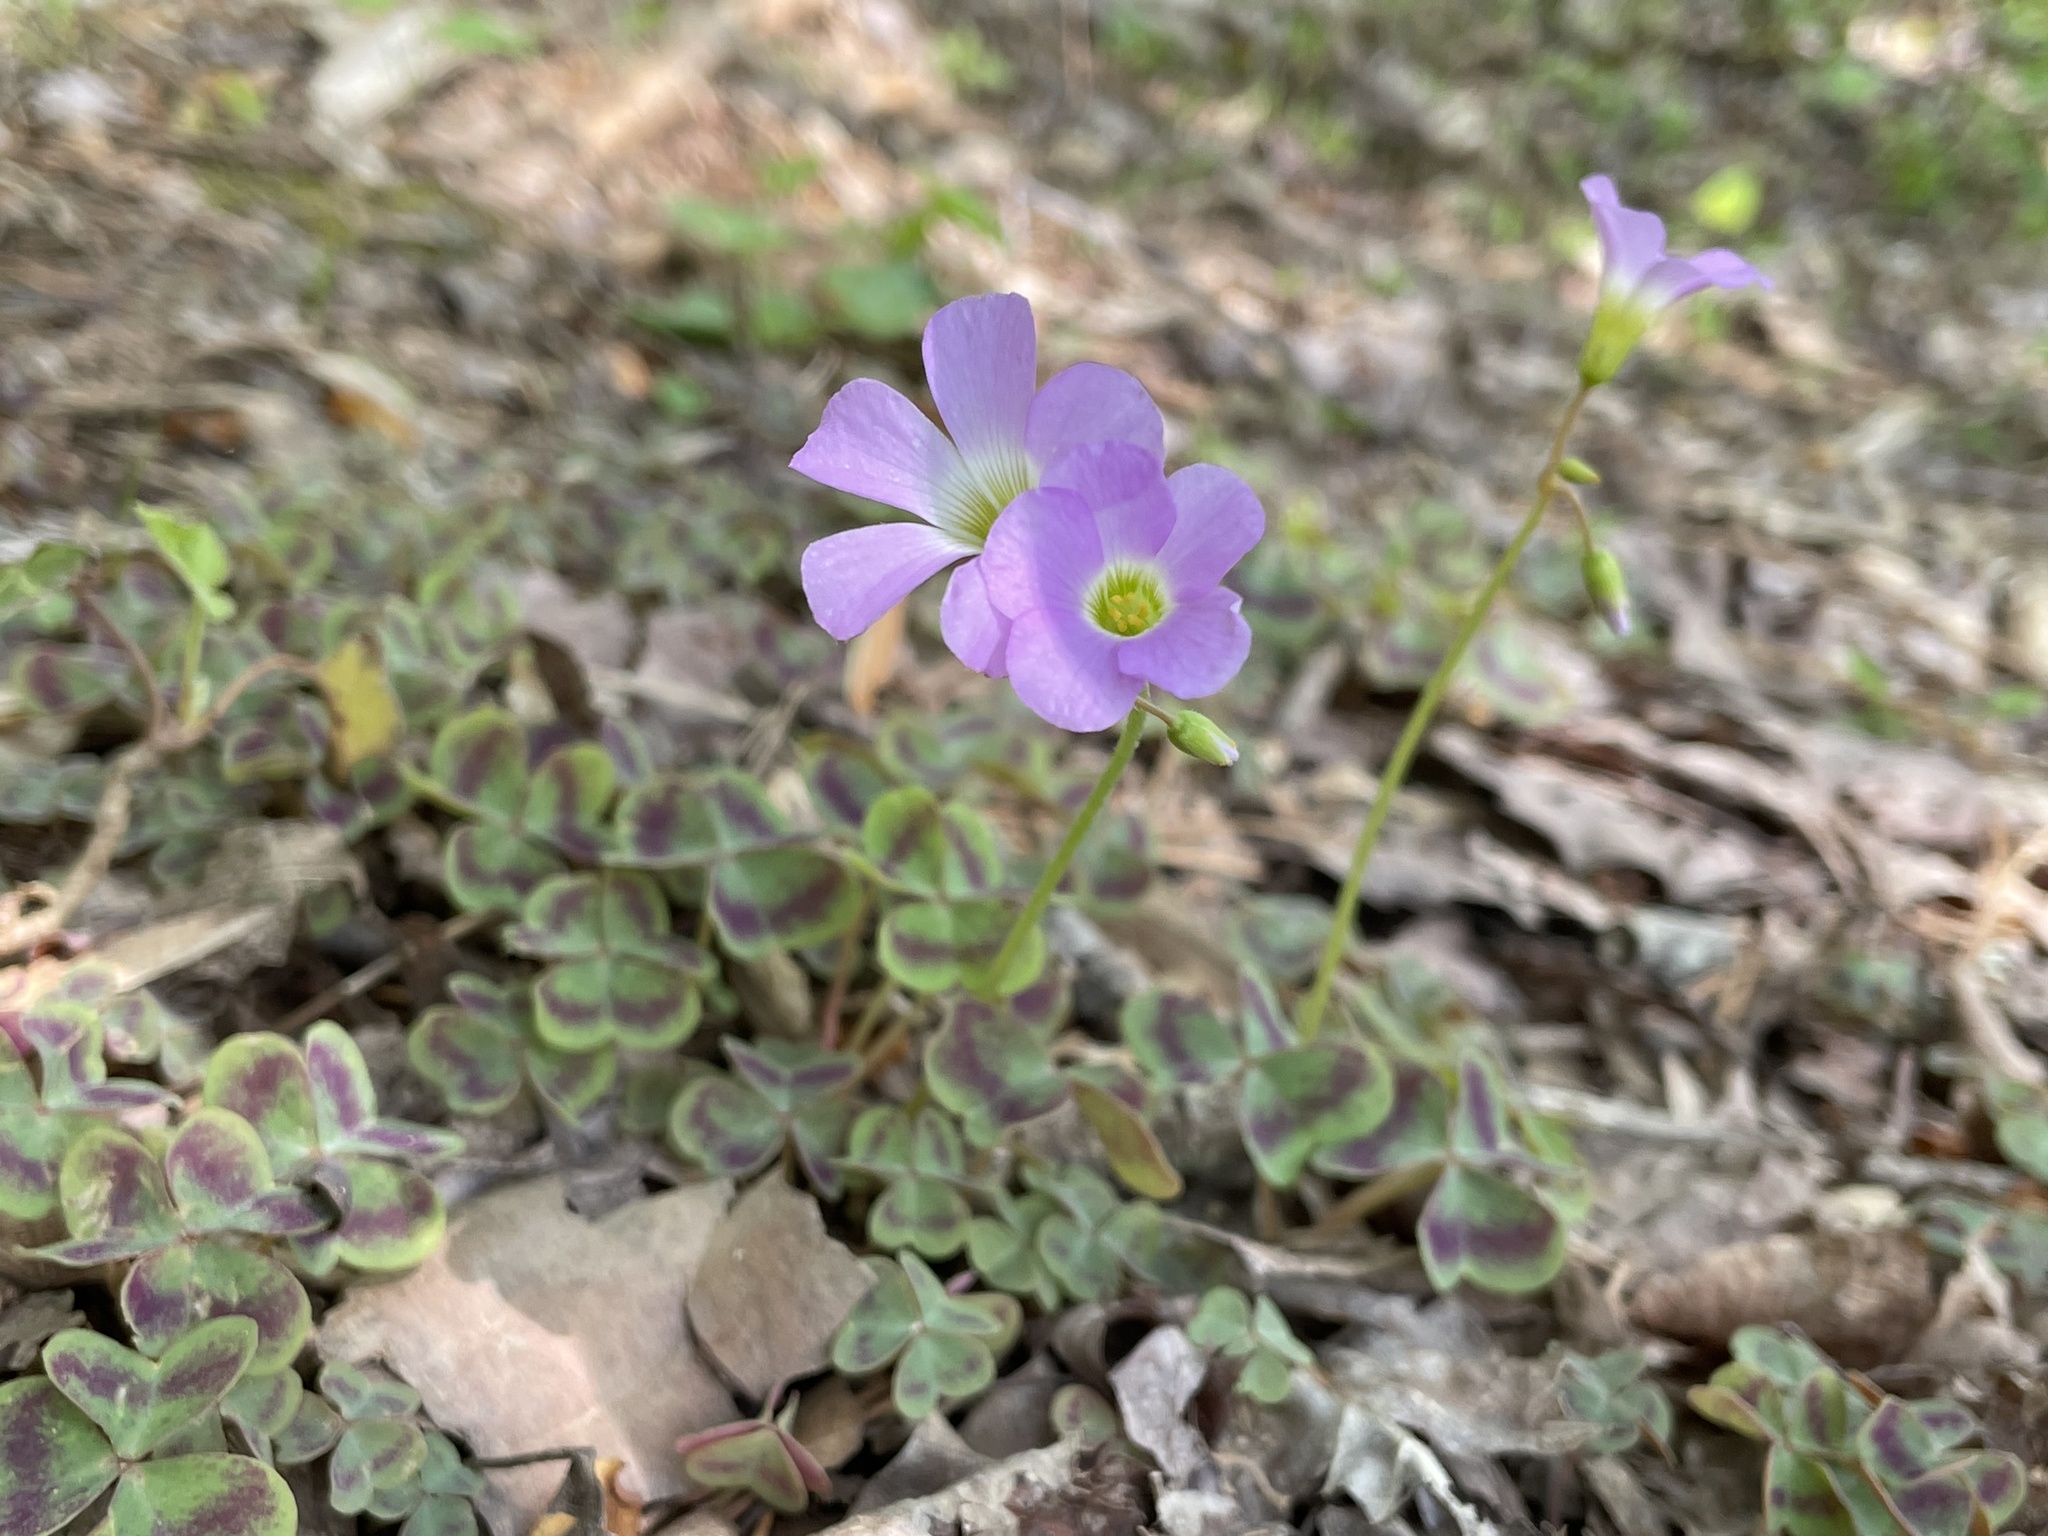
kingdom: Plantae
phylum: Tracheophyta
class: Magnoliopsida
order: Oxalidales
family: Oxalidaceae
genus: Oxalis
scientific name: Oxalis violacea
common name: Violet wood-sorrel
